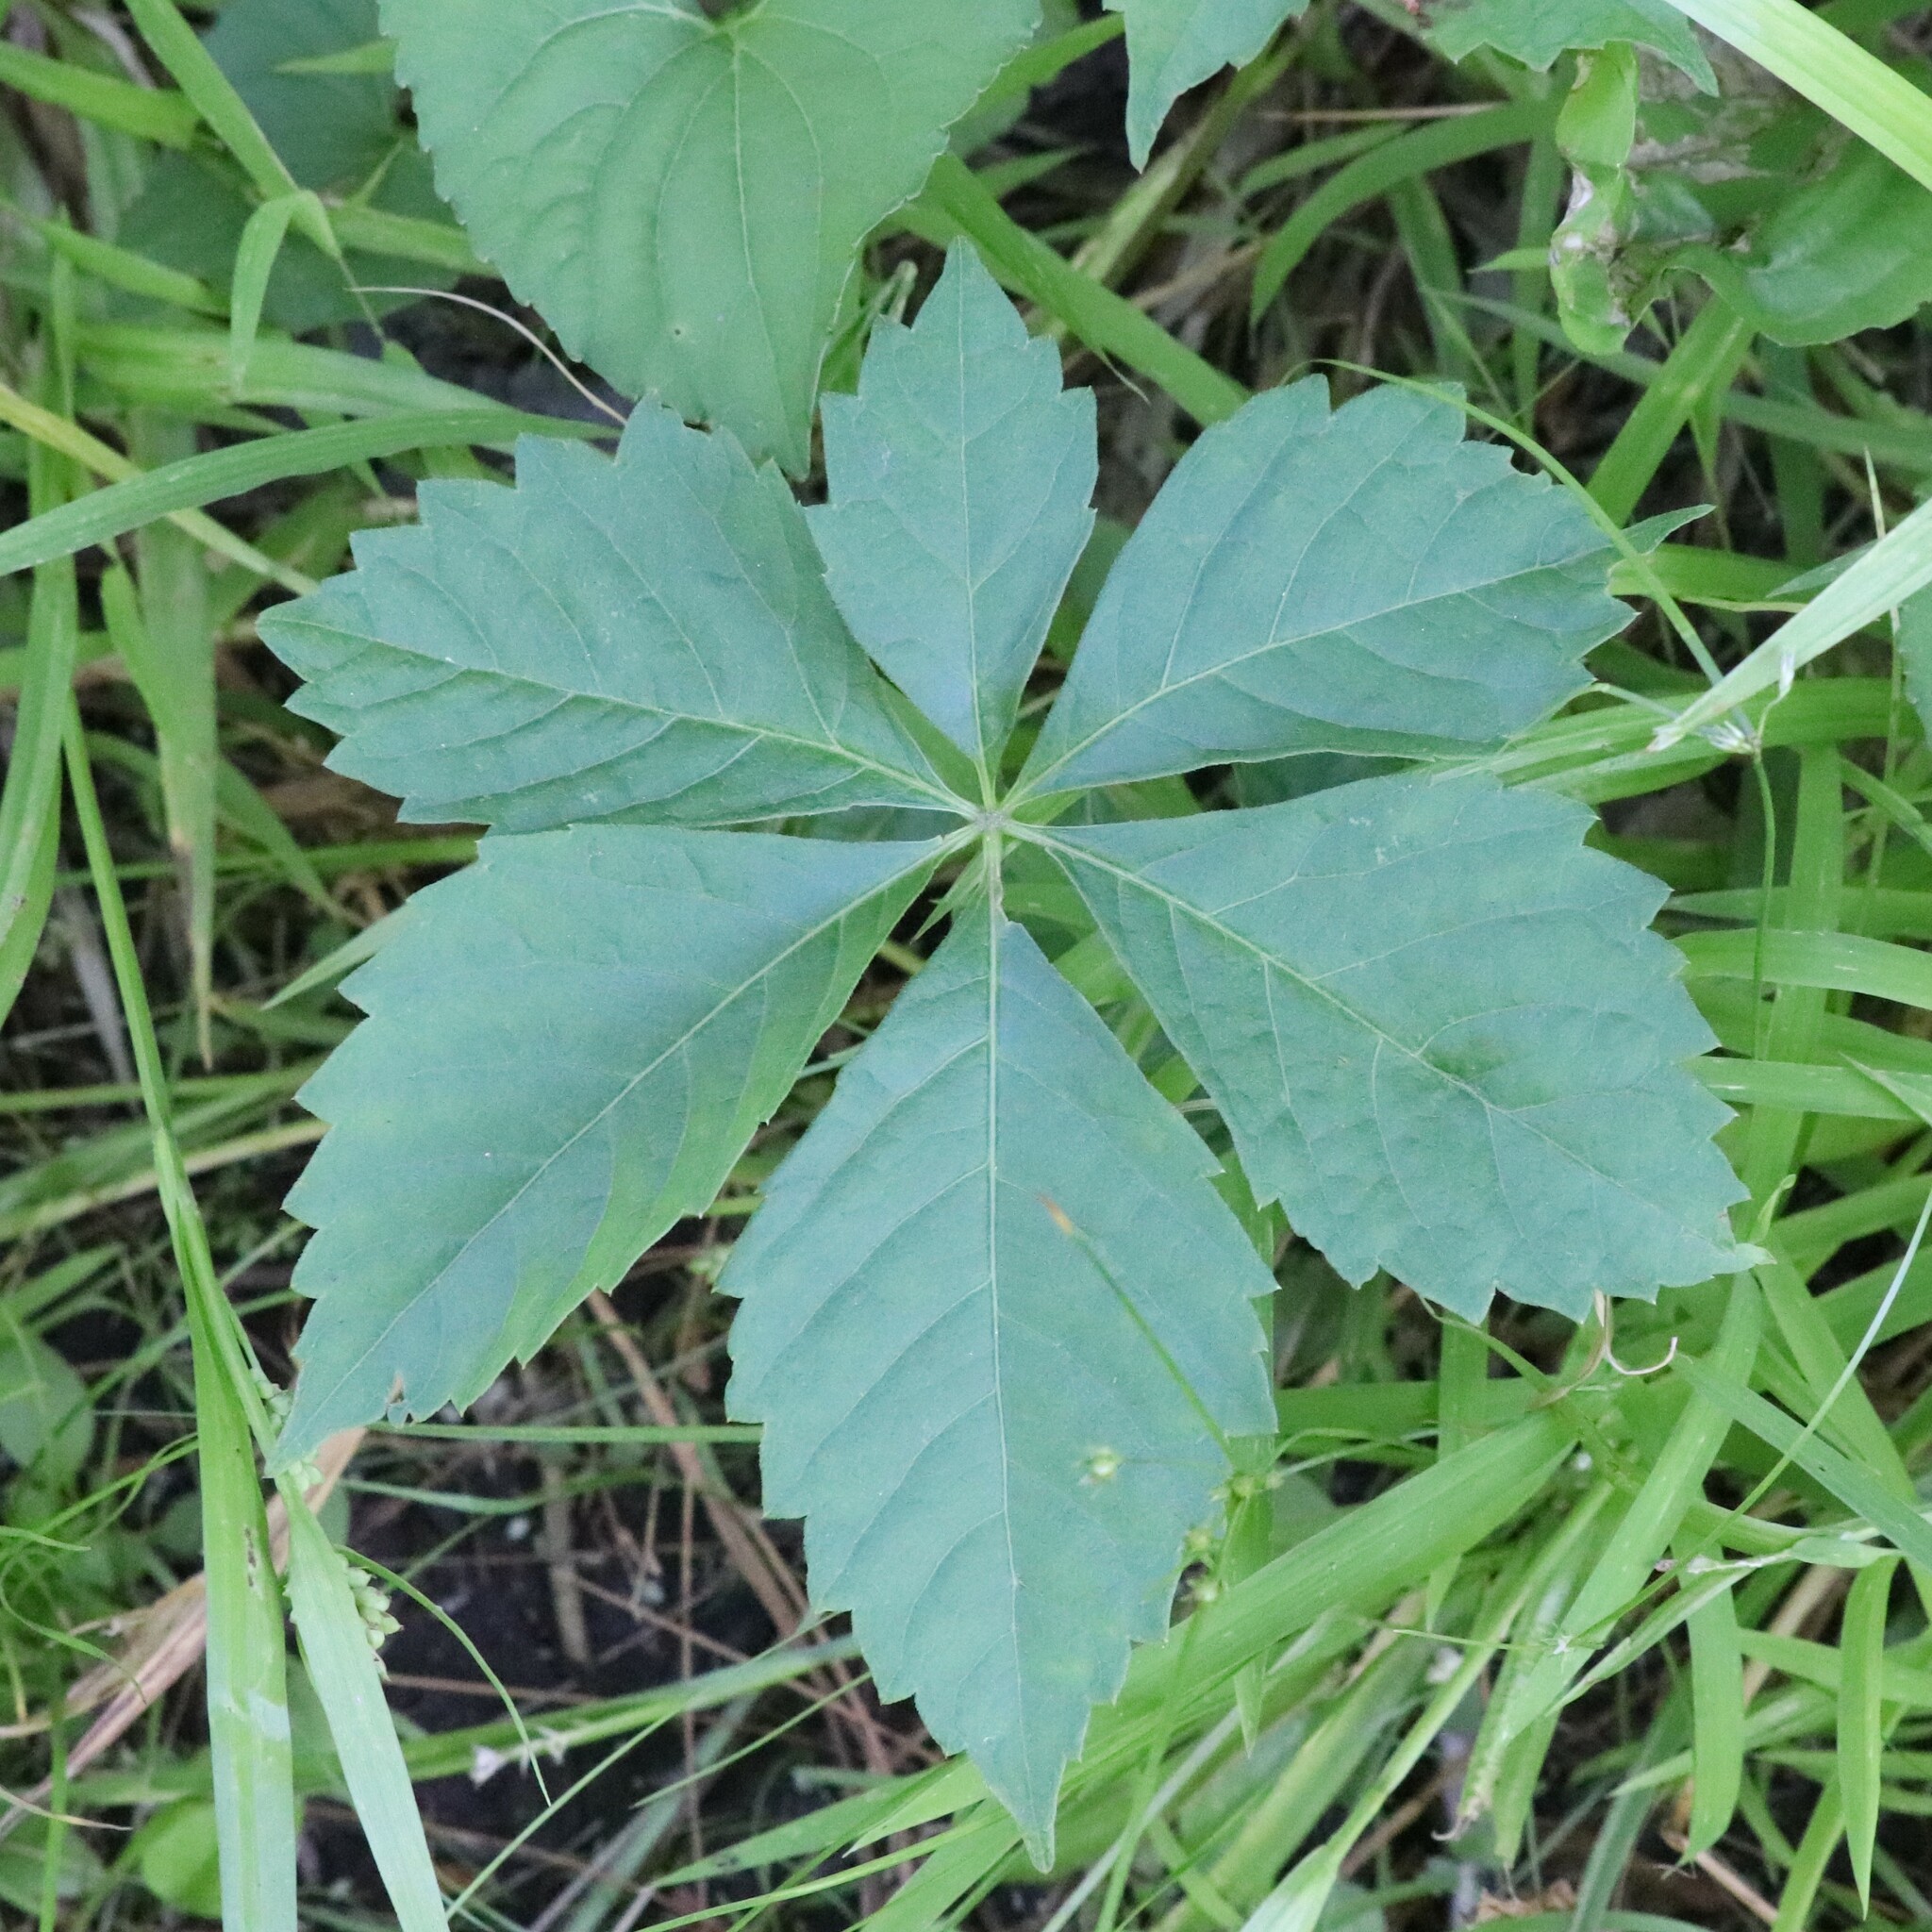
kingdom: Plantae
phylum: Tracheophyta
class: Magnoliopsida
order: Vitales
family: Vitaceae
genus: Parthenocissus
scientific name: Parthenocissus quinquefolia
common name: Virginia-creeper
